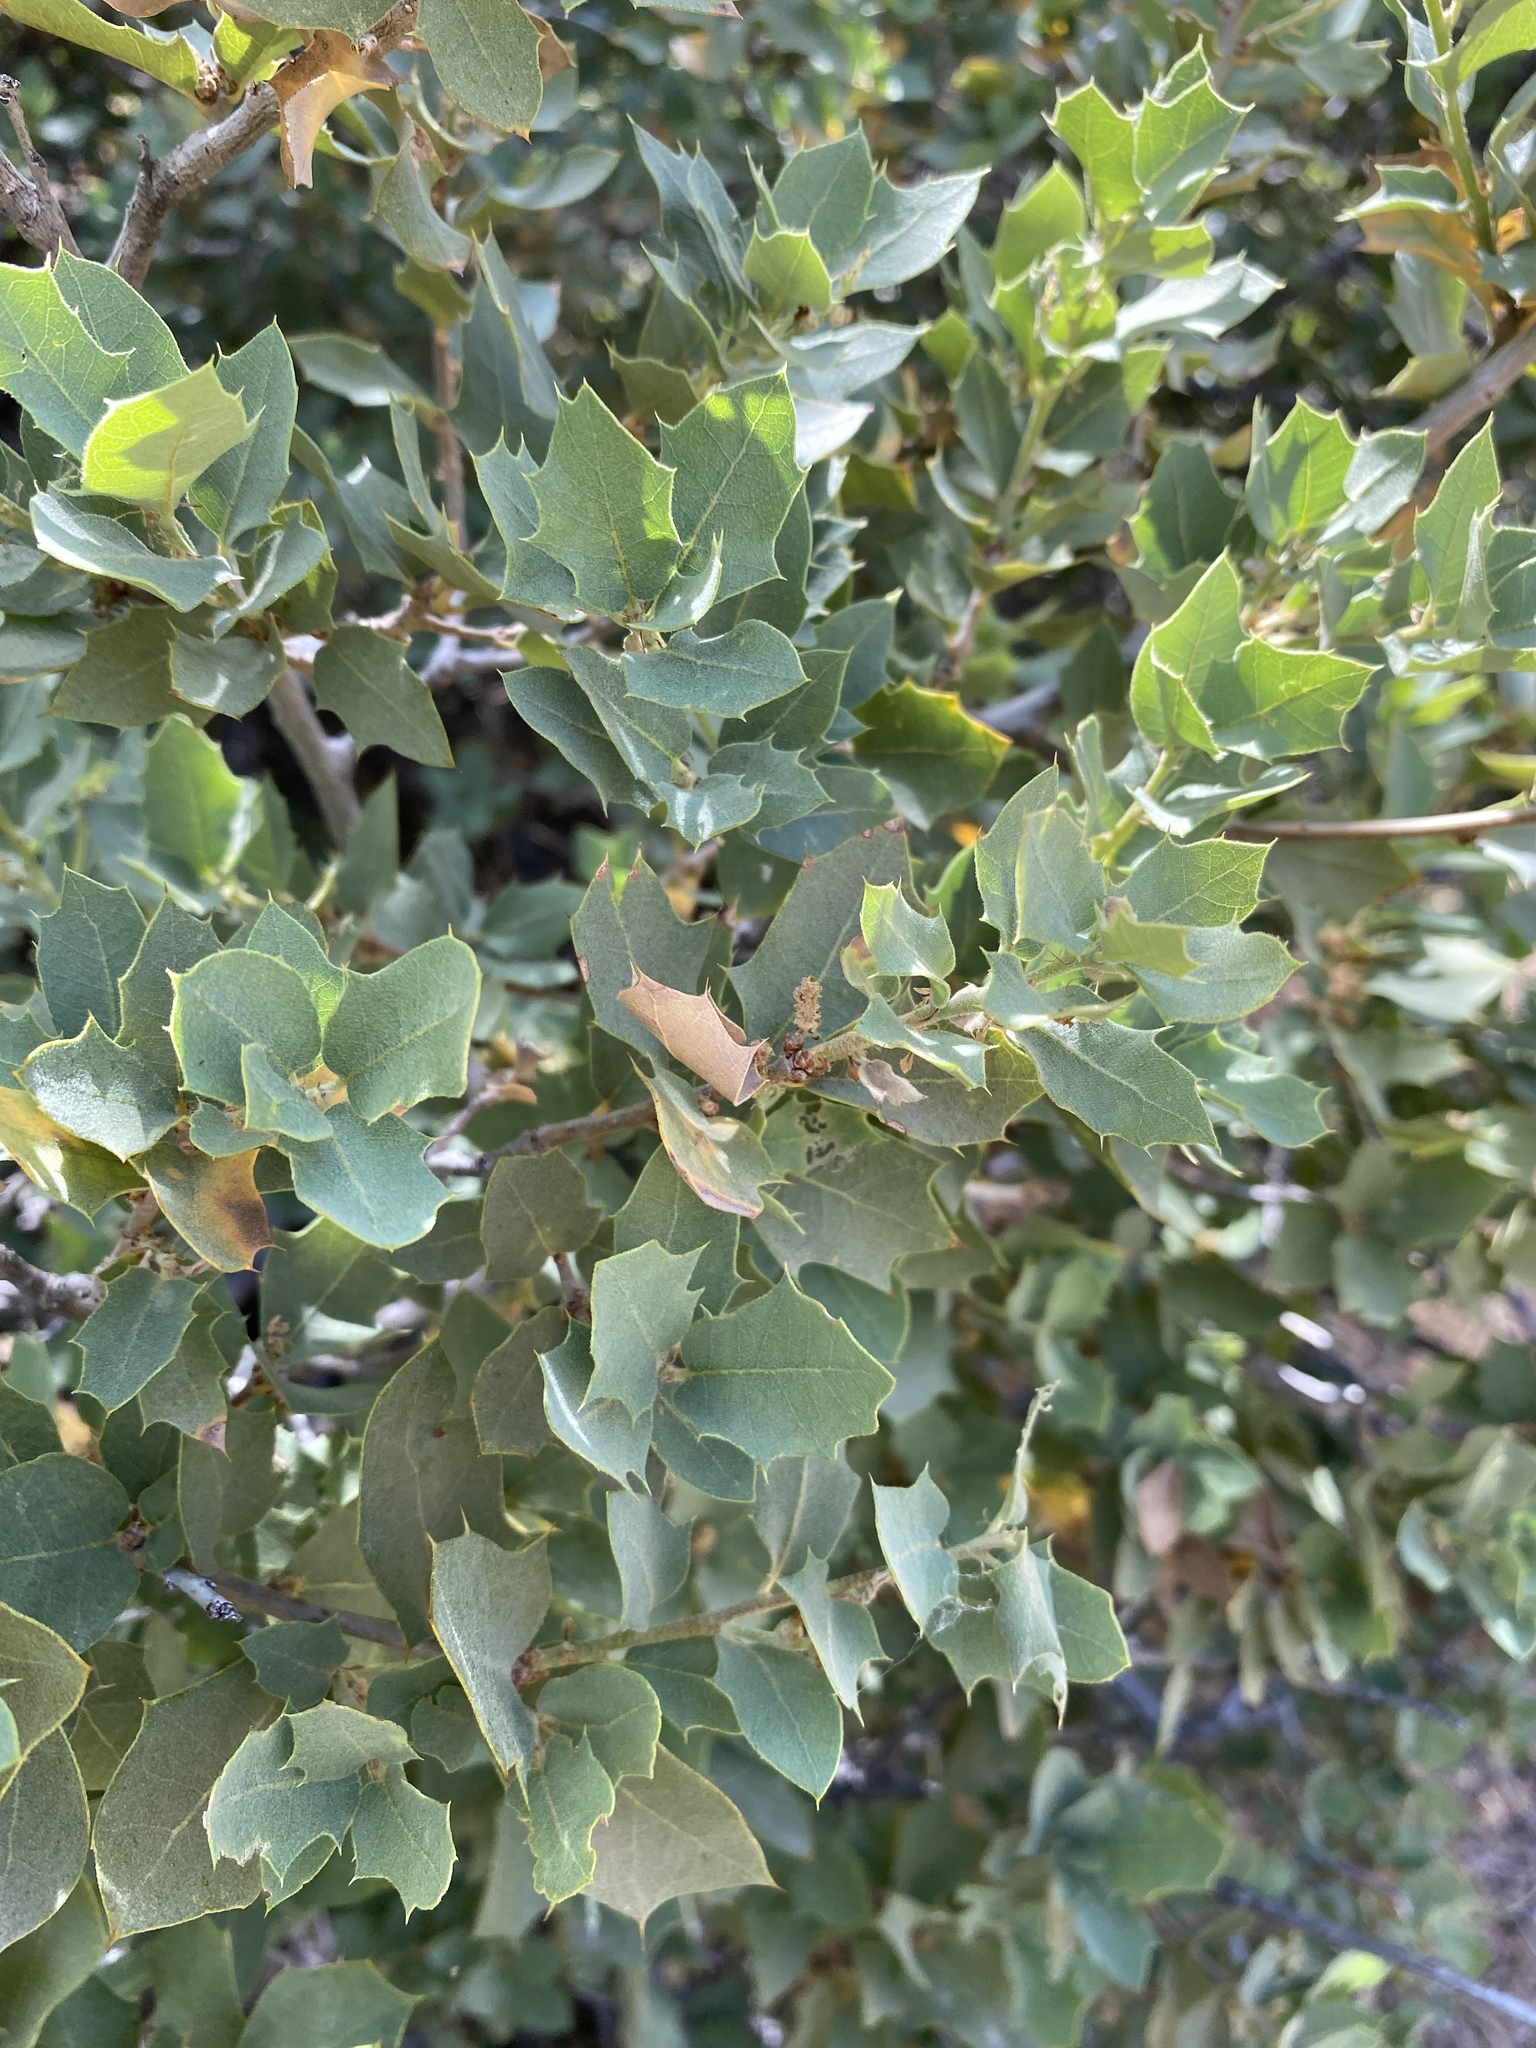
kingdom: Plantae
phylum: Tracheophyta
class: Magnoliopsida
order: Fagales
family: Fagaceae
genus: Quercus
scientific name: Quercus turbinella
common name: Sonoran scrub oak
